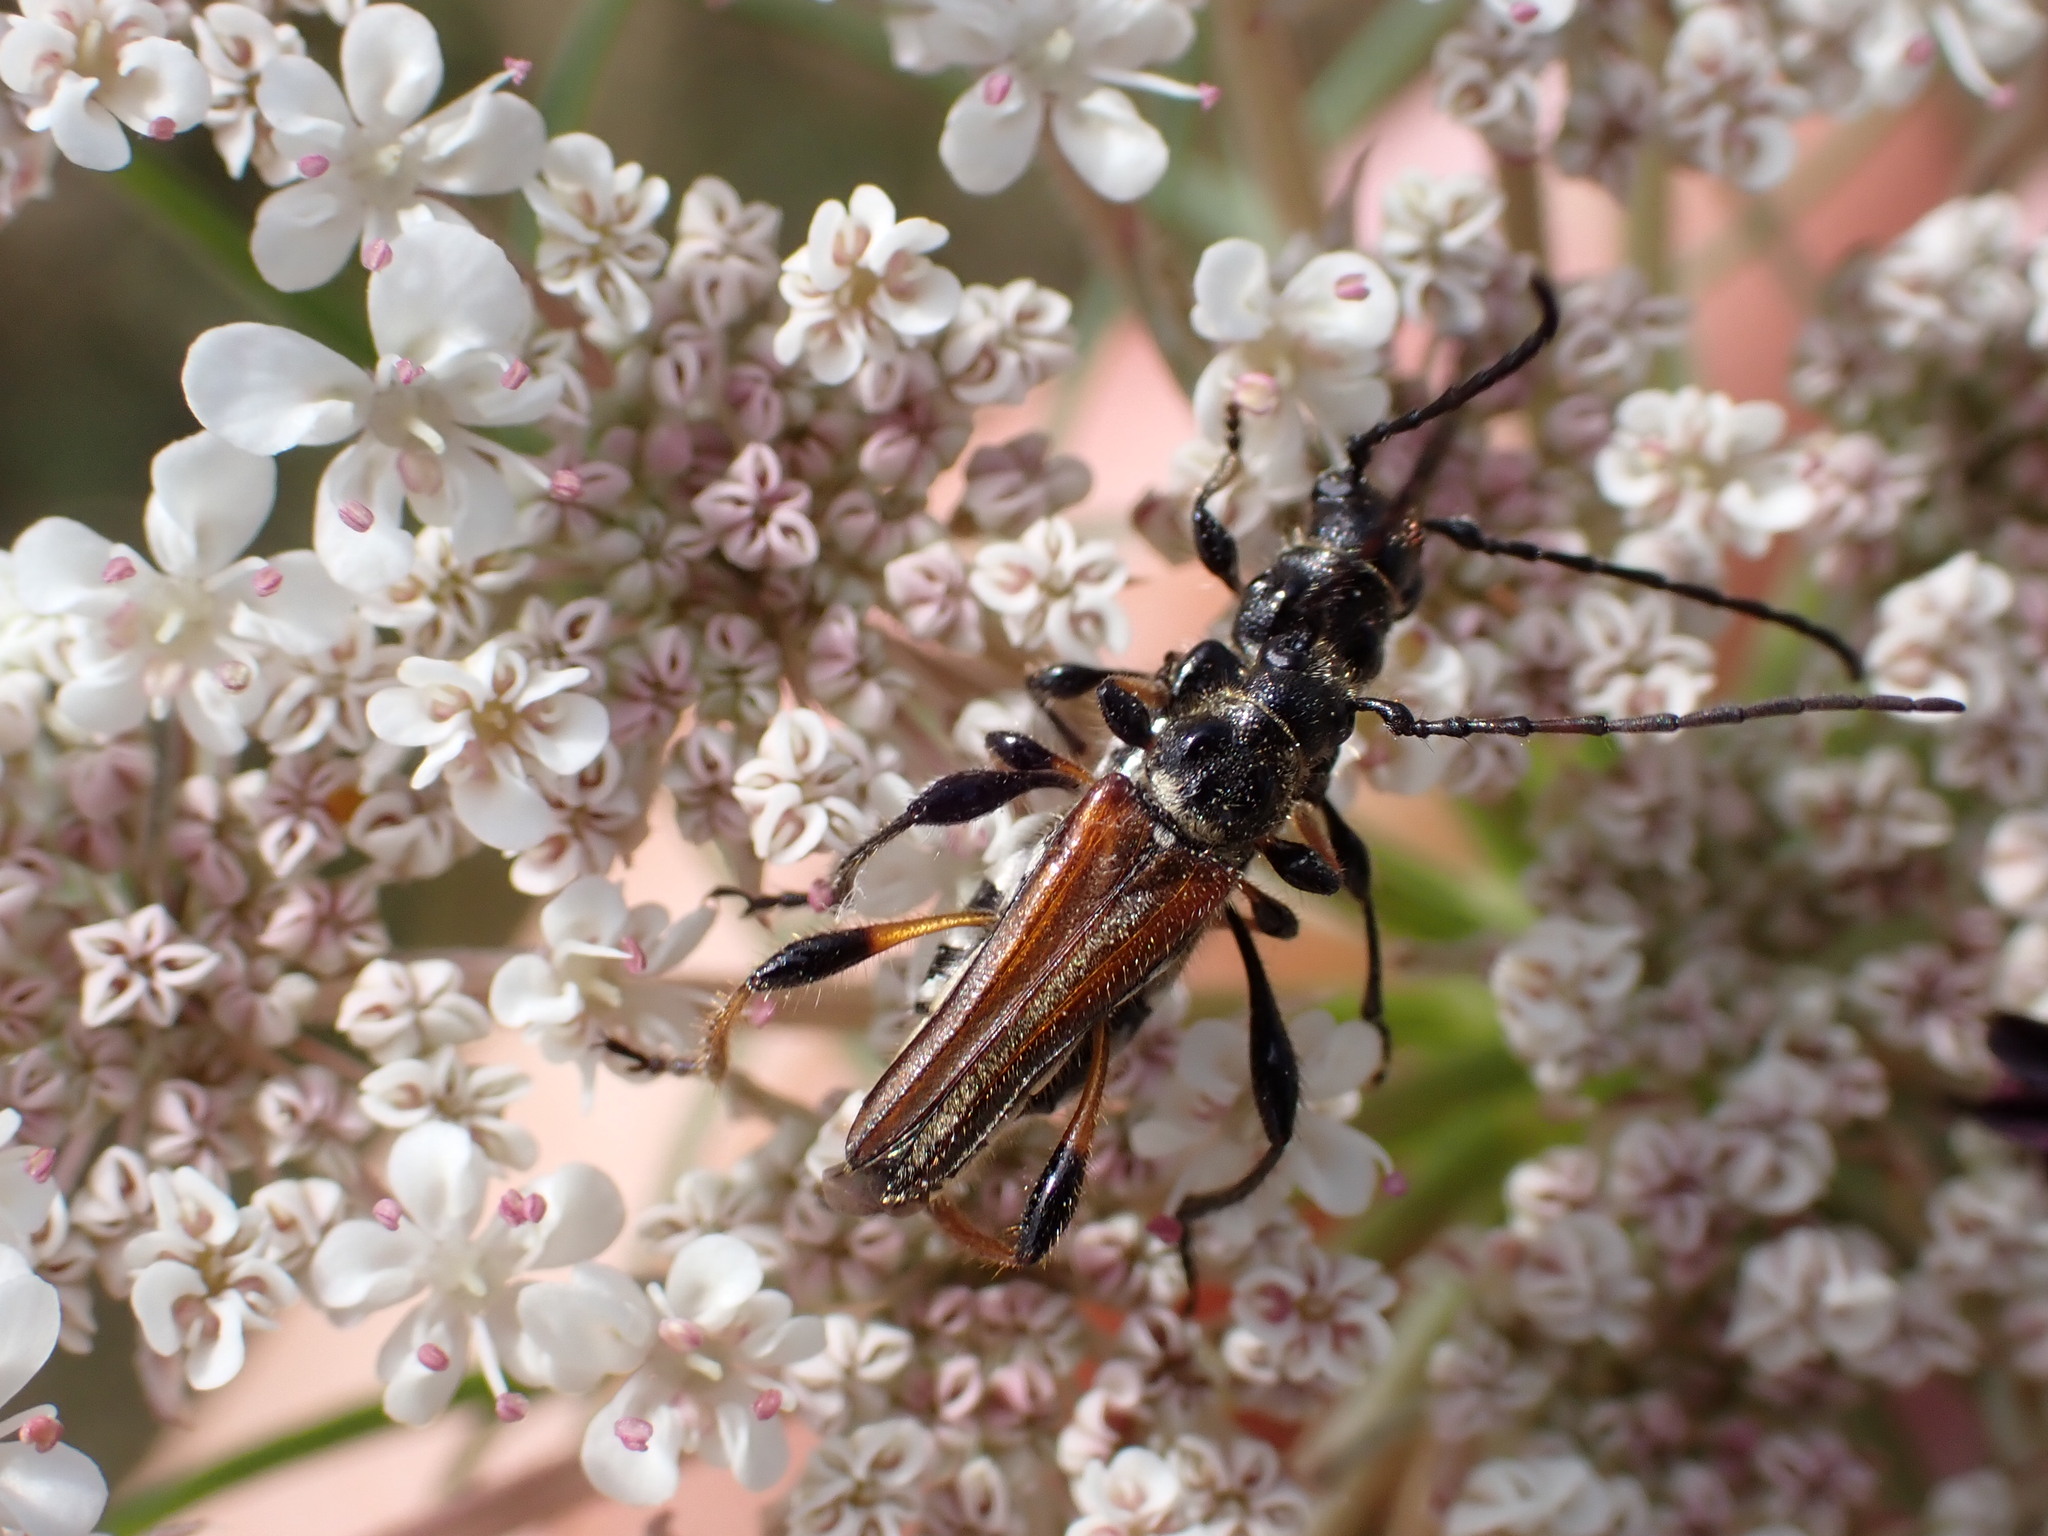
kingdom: Animalia
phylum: Arthropoda
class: Insecta
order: Coleoptera
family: Cerambycidae
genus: Stenopterus
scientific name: Stenopterus ater
